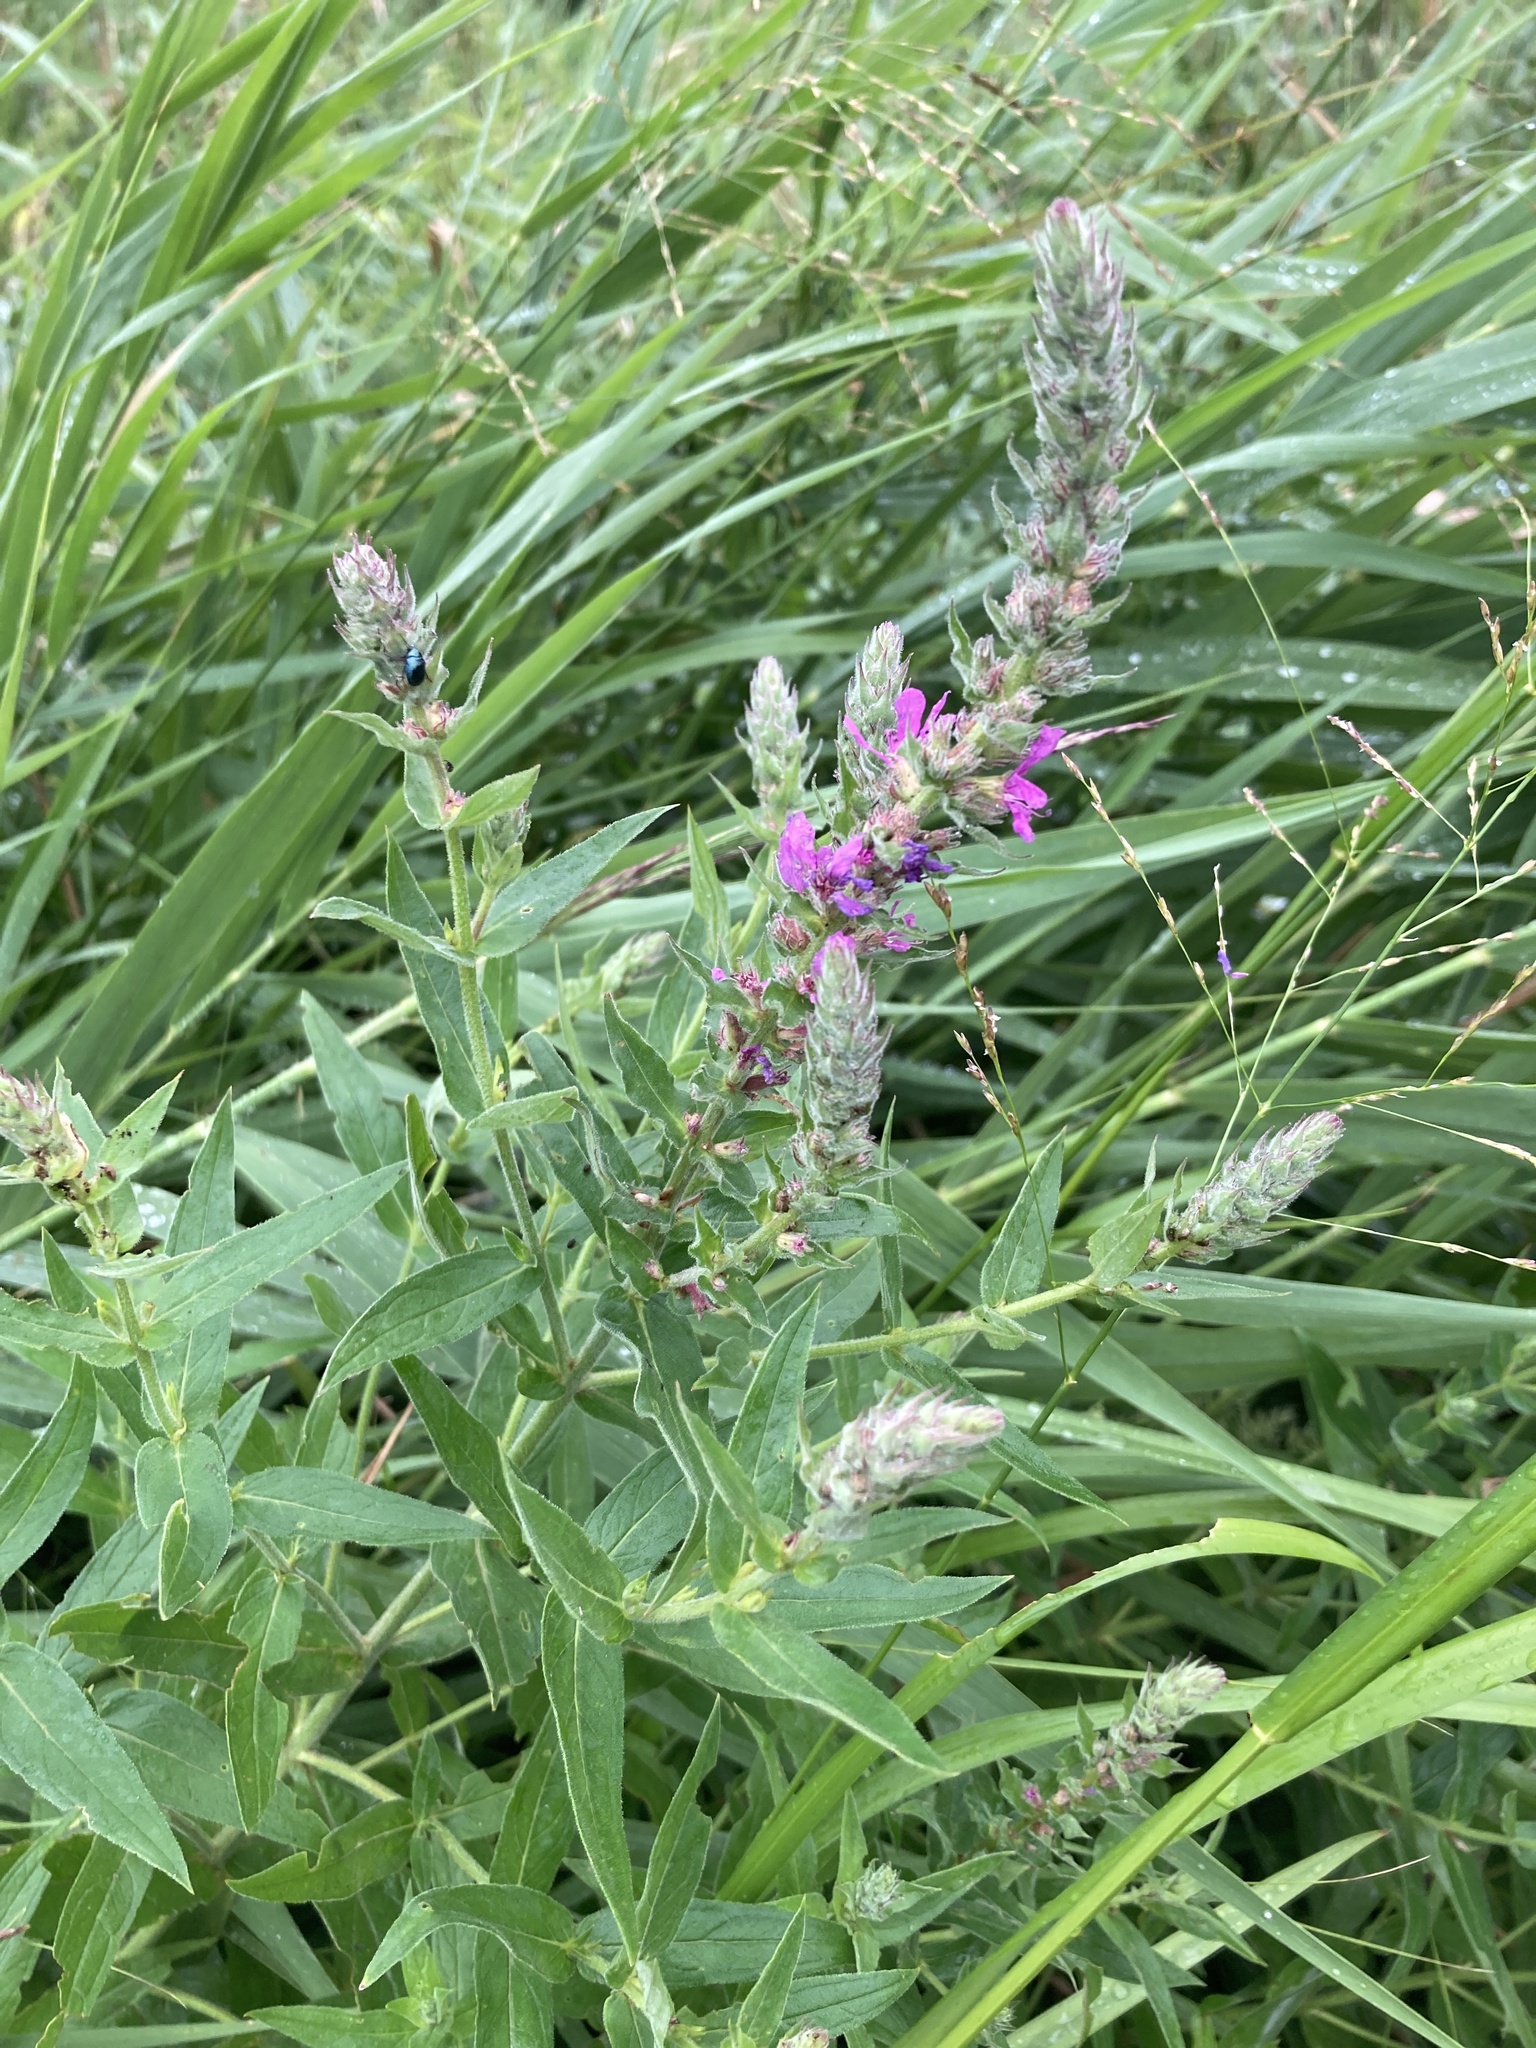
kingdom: Plantae
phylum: Tracheophyta
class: Magnoliopsida
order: Myrtales
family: Lythraceae
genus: Lythrum
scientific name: Lythrum salicaria
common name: Purple loosestrife
